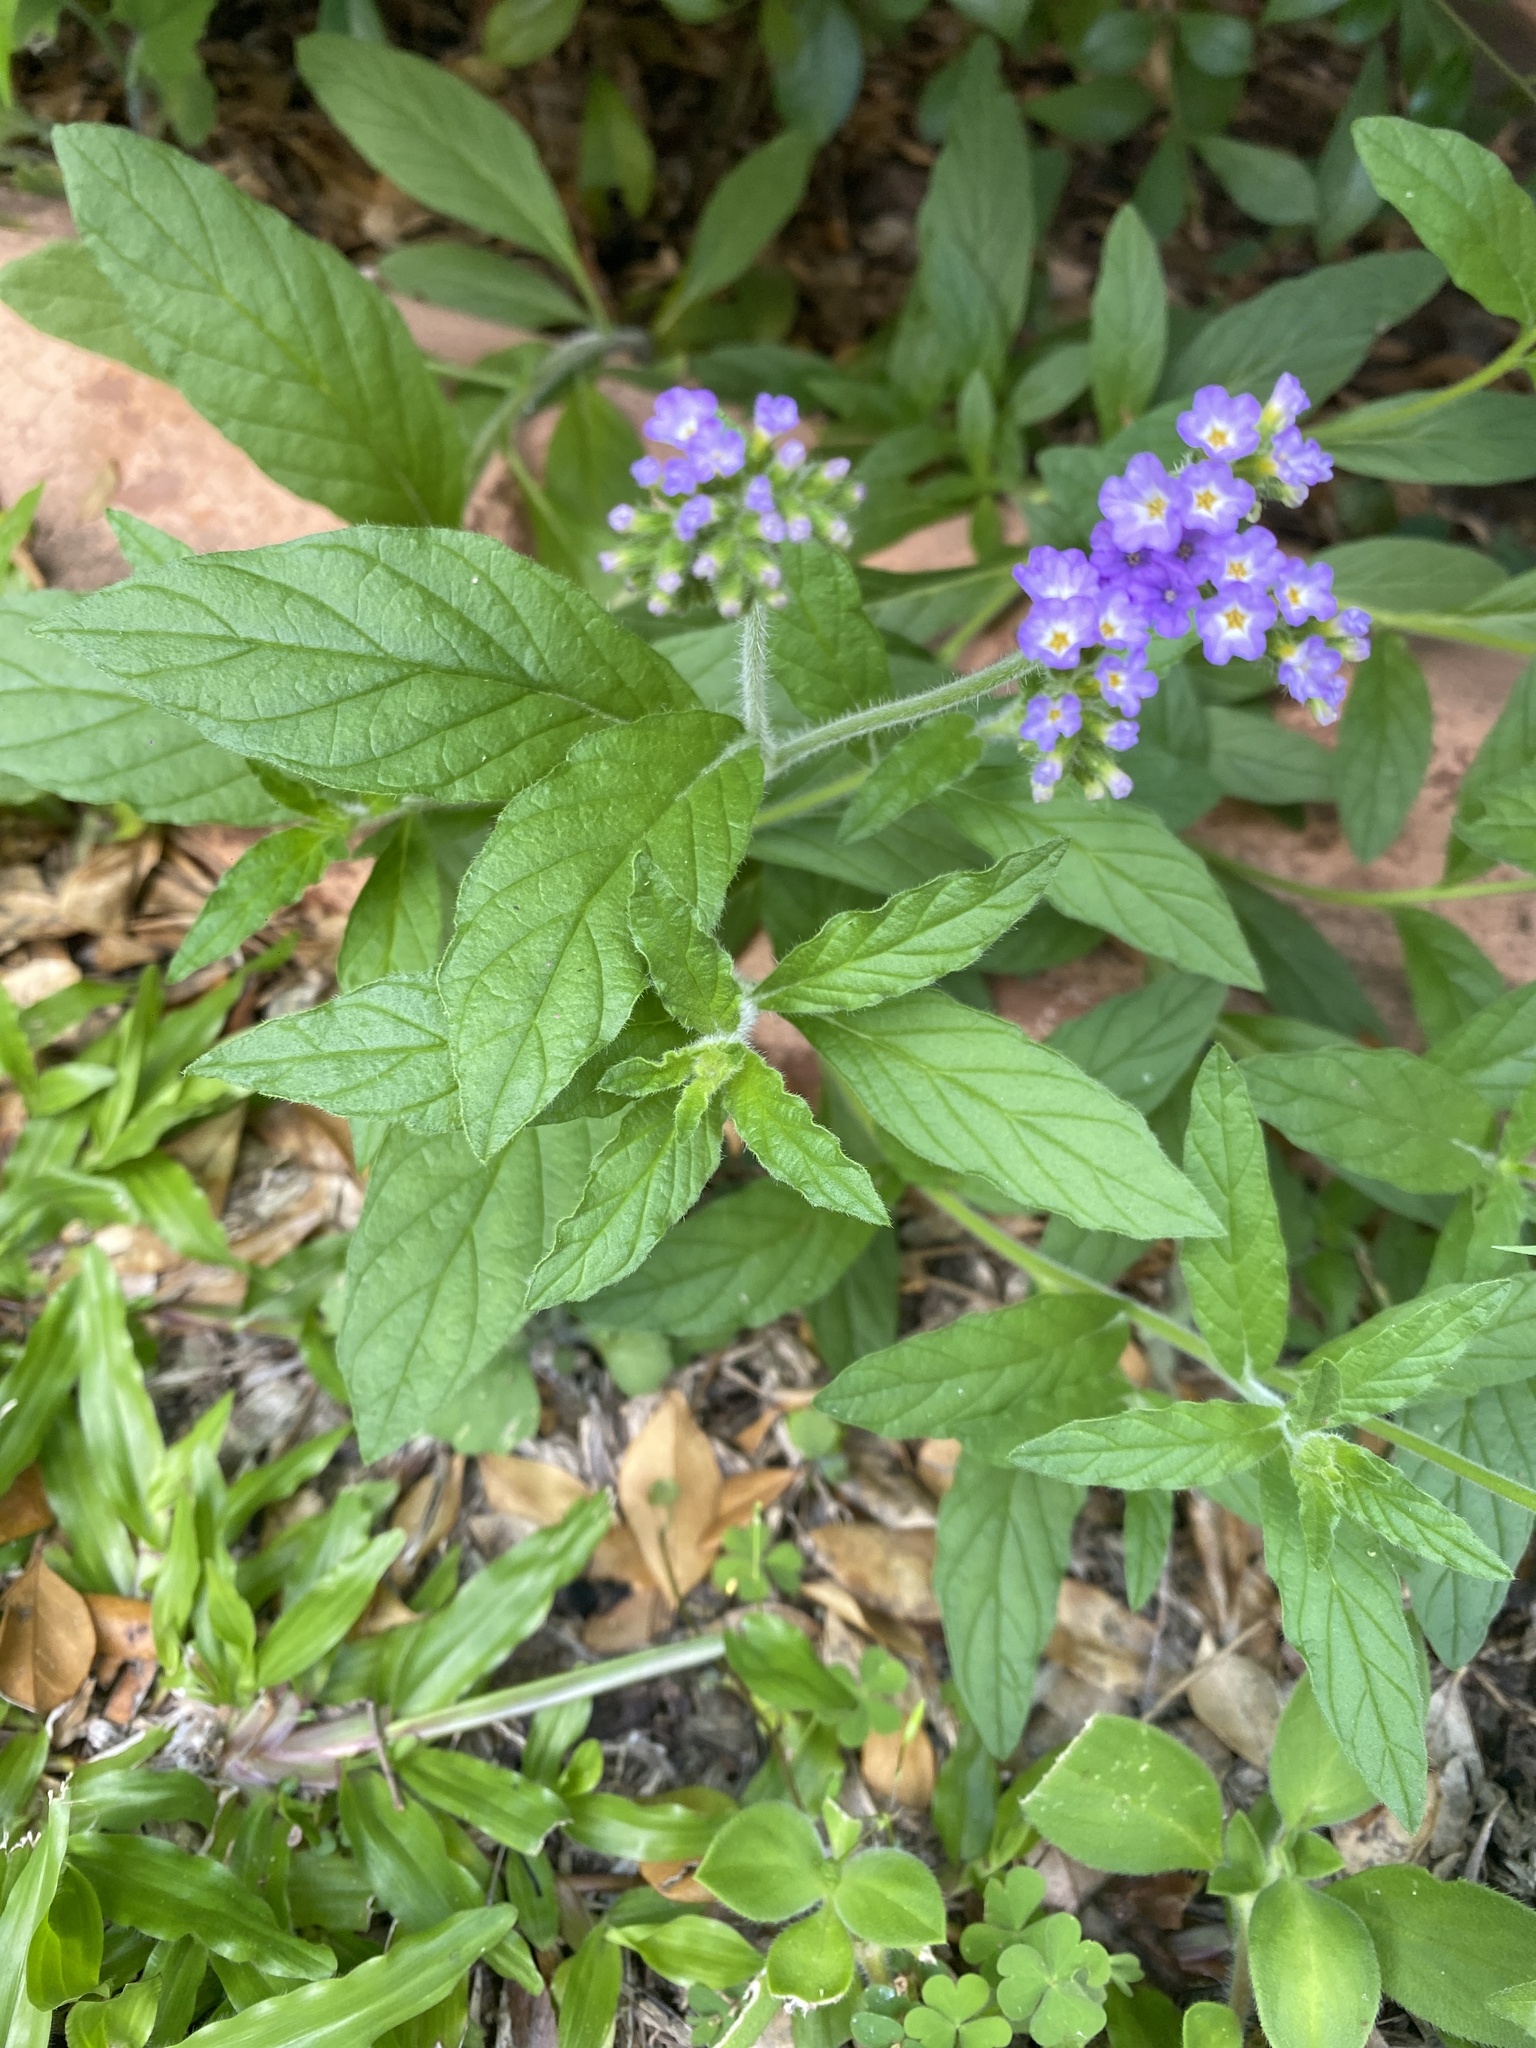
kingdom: Plantae
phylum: Tracheophyta
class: Magnoliopsida
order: Boraginales
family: Heliotropiaceae
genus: Heliotropium
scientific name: Heliotropium amplexicaule
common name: Clasping heliotrope
